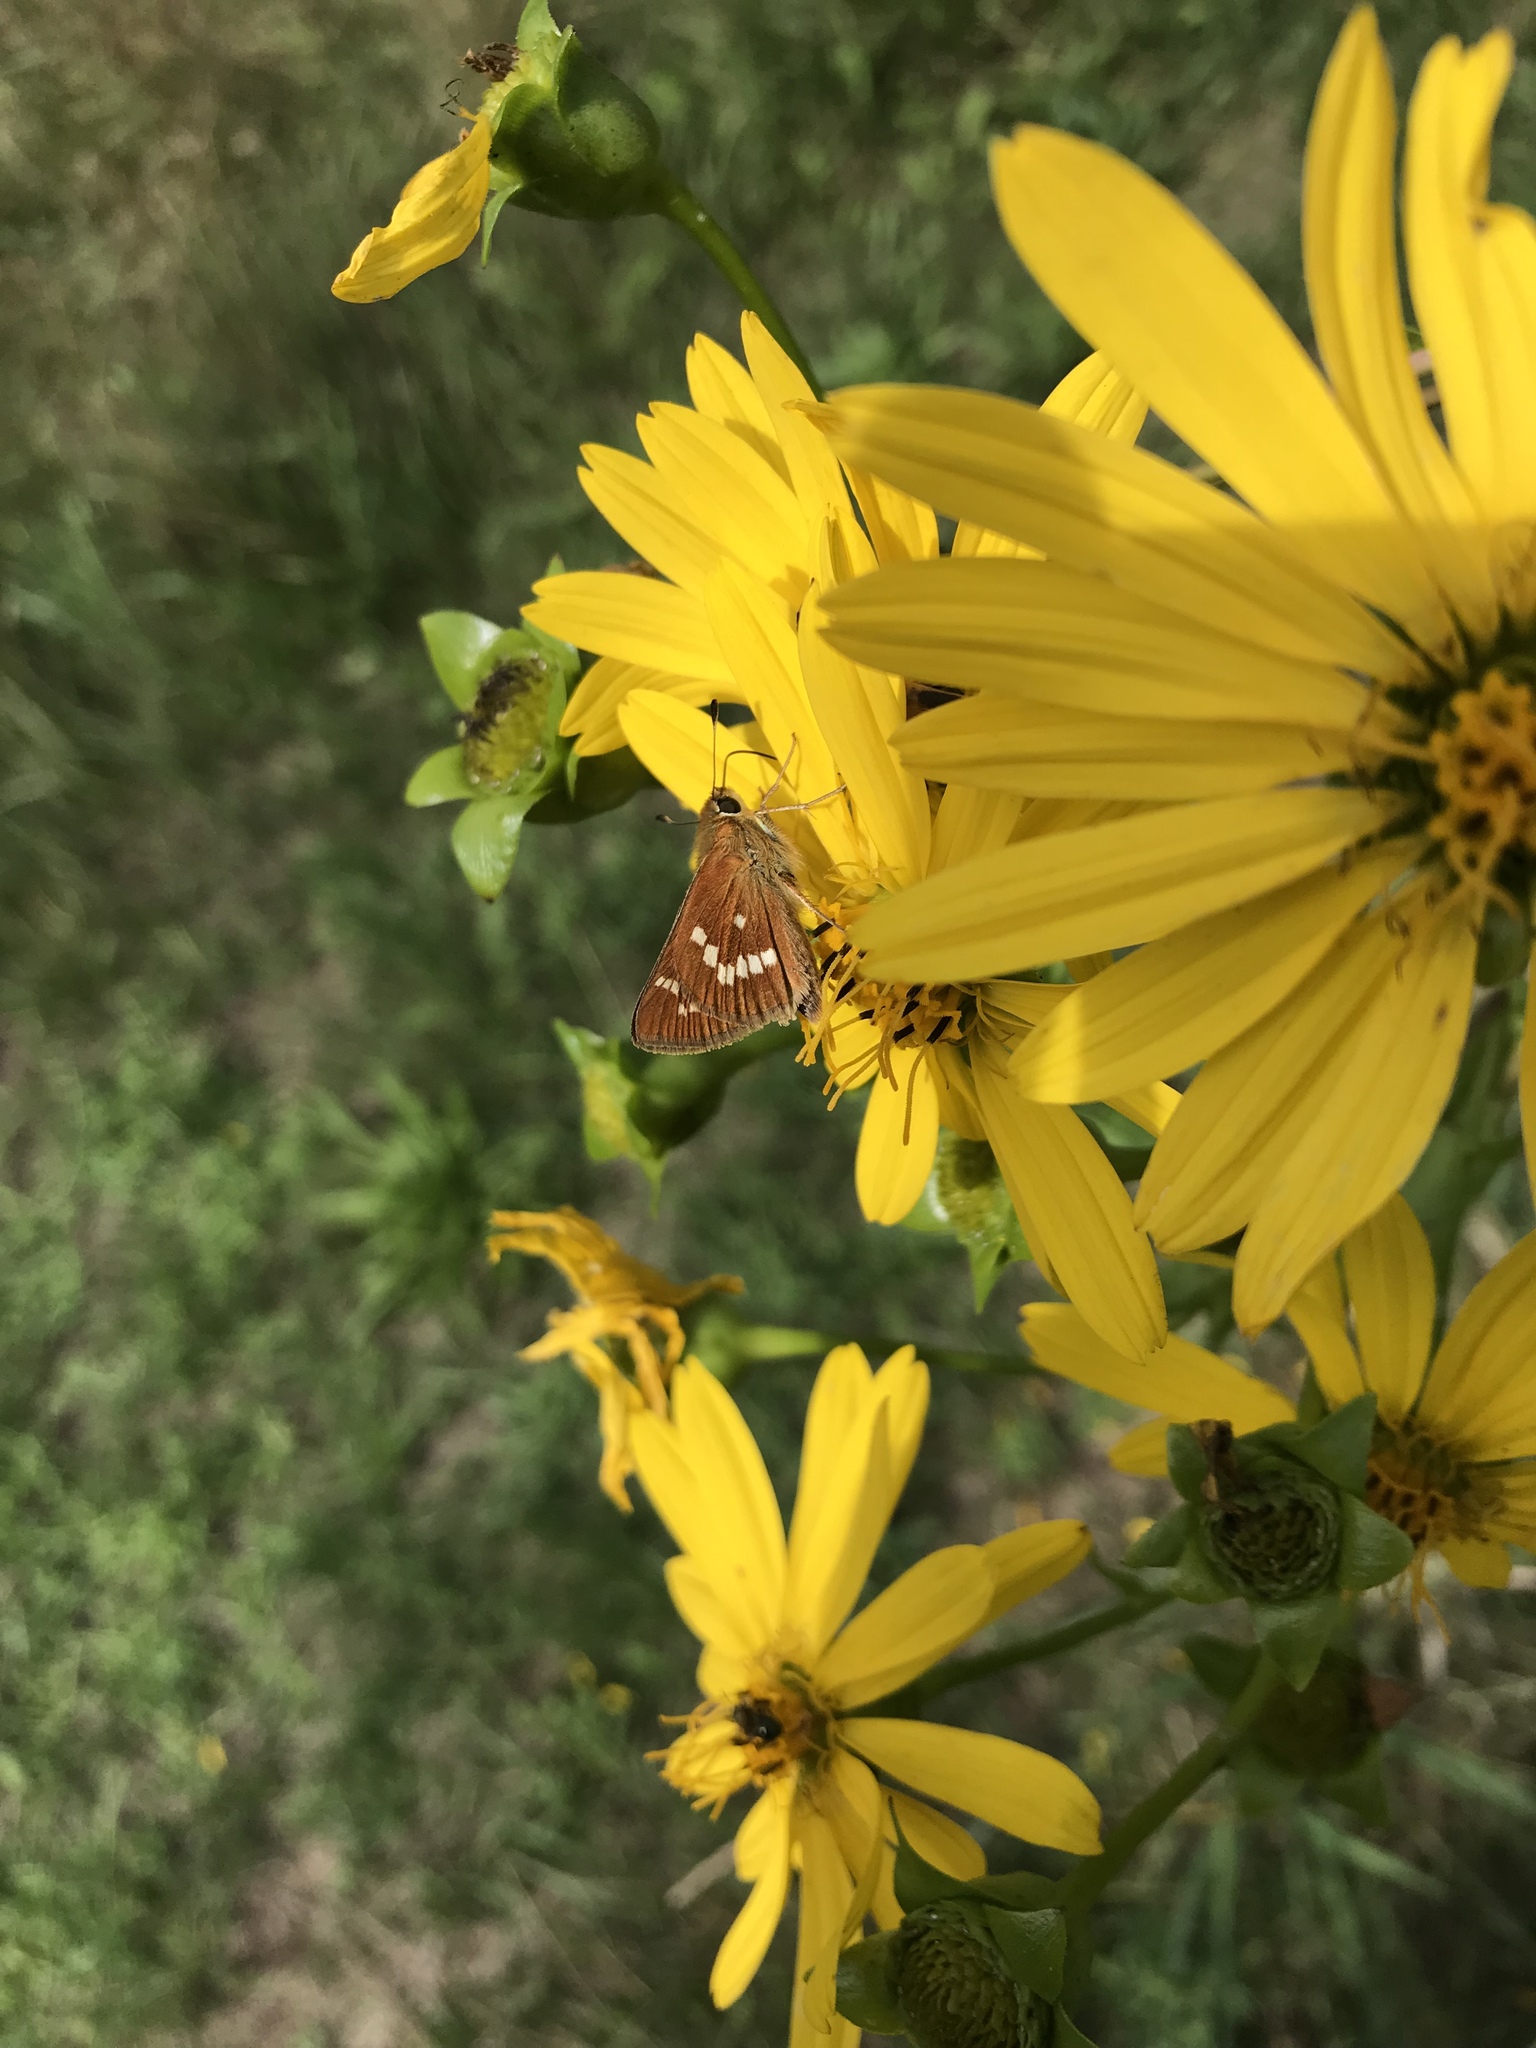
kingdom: Animalia
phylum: Arthropoda
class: Insecta
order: Lepidoptera
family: Hesperiidae
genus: Hesperia
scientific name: Hesperia leonardus
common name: Leonard's skipper
